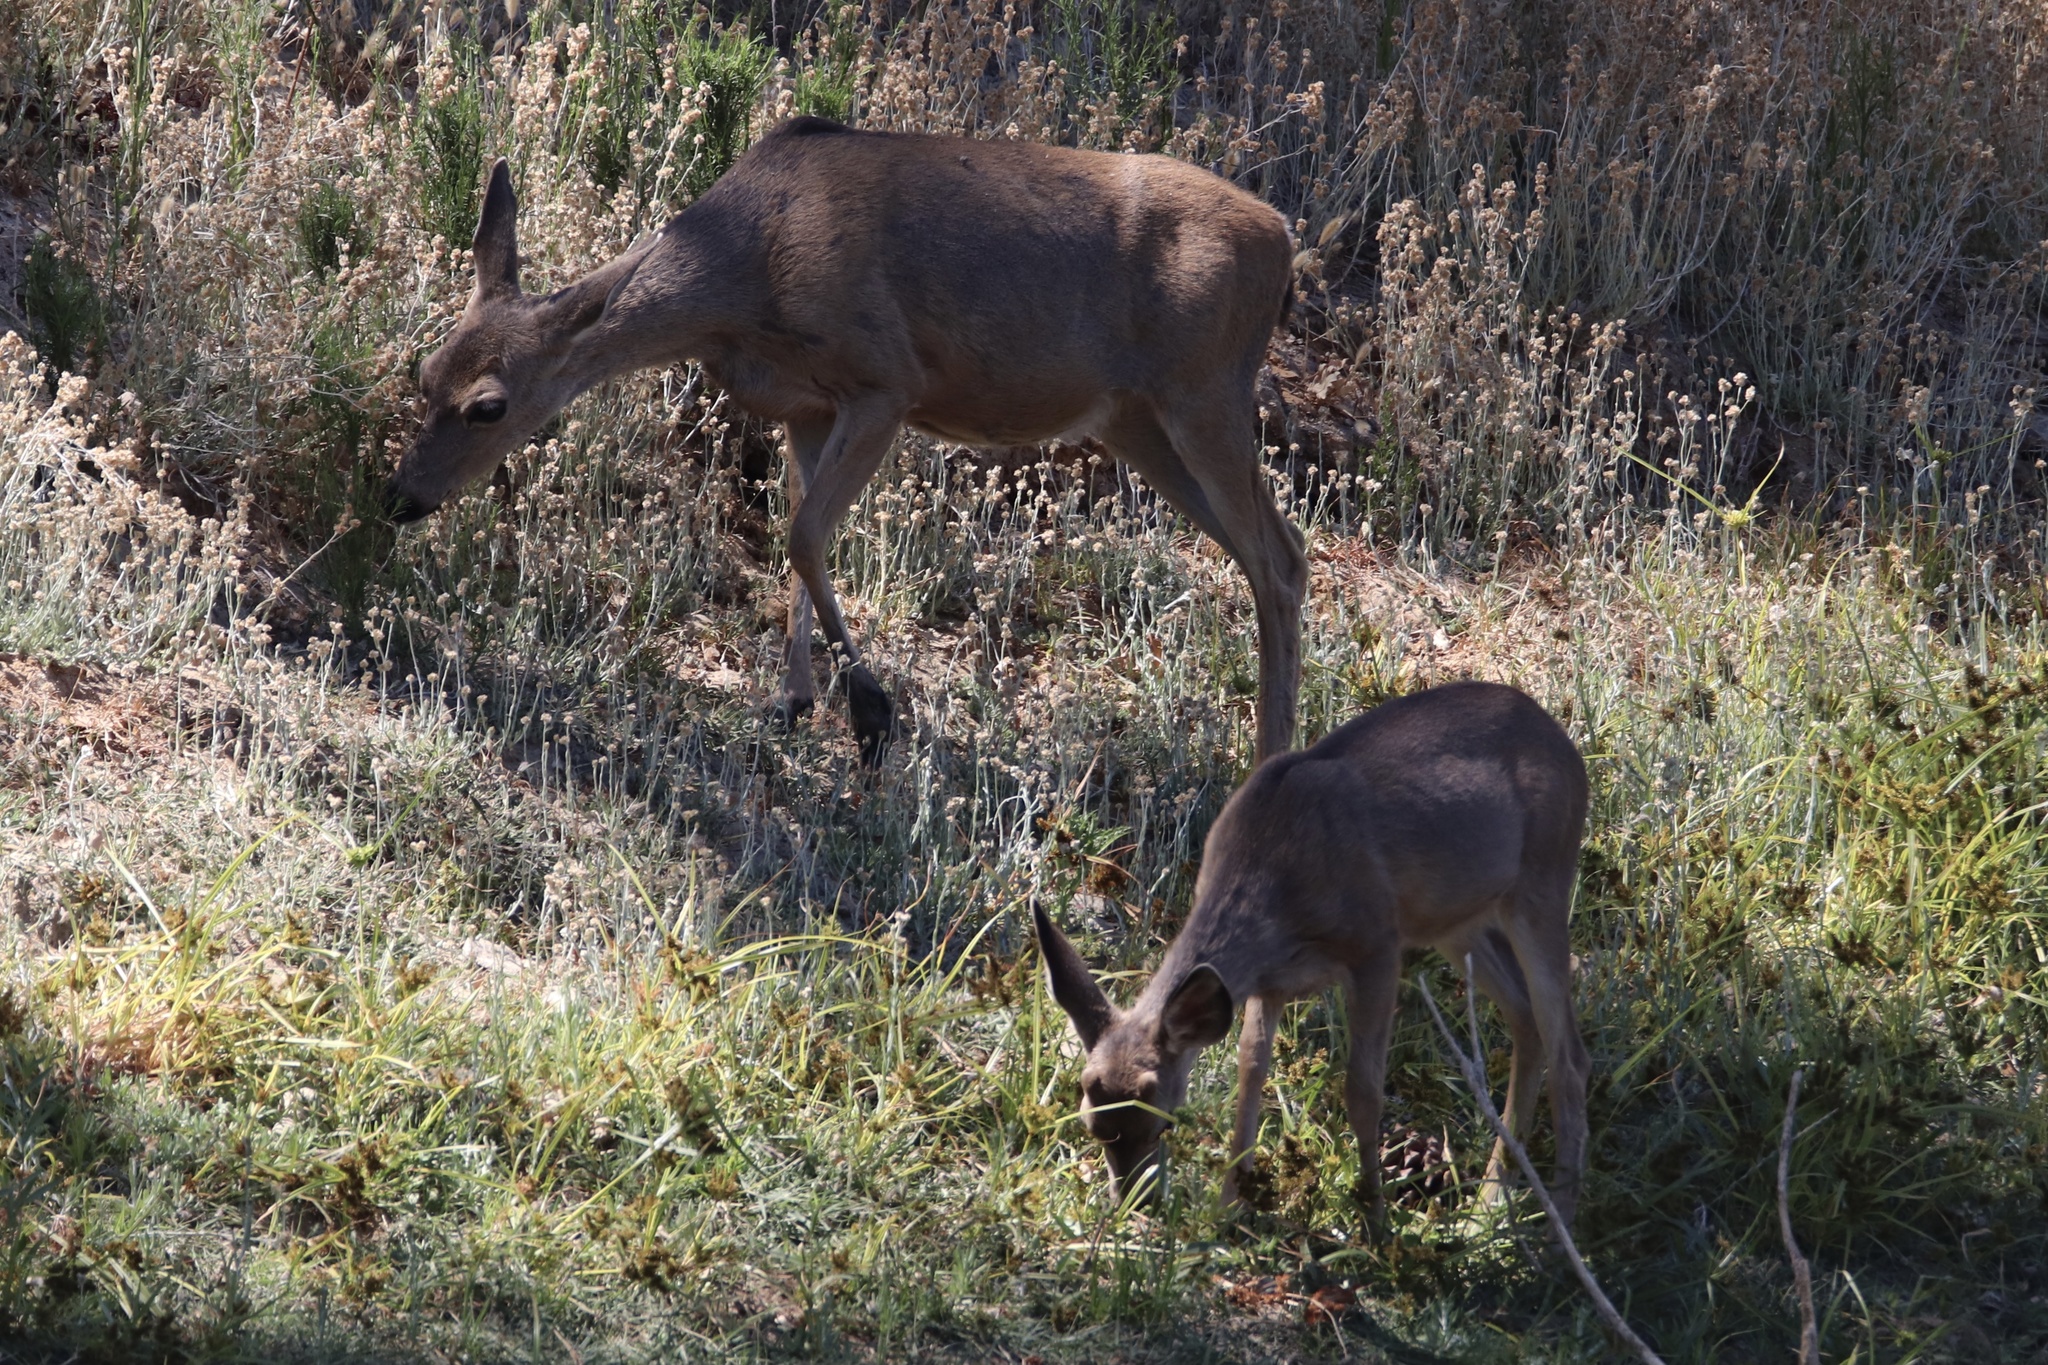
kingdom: Animalia
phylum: Chordata
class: Mammalia
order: Artiodactyla
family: Cervidae
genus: Odocoileus
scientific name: Odocoileus hemionus
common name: Mule deer
